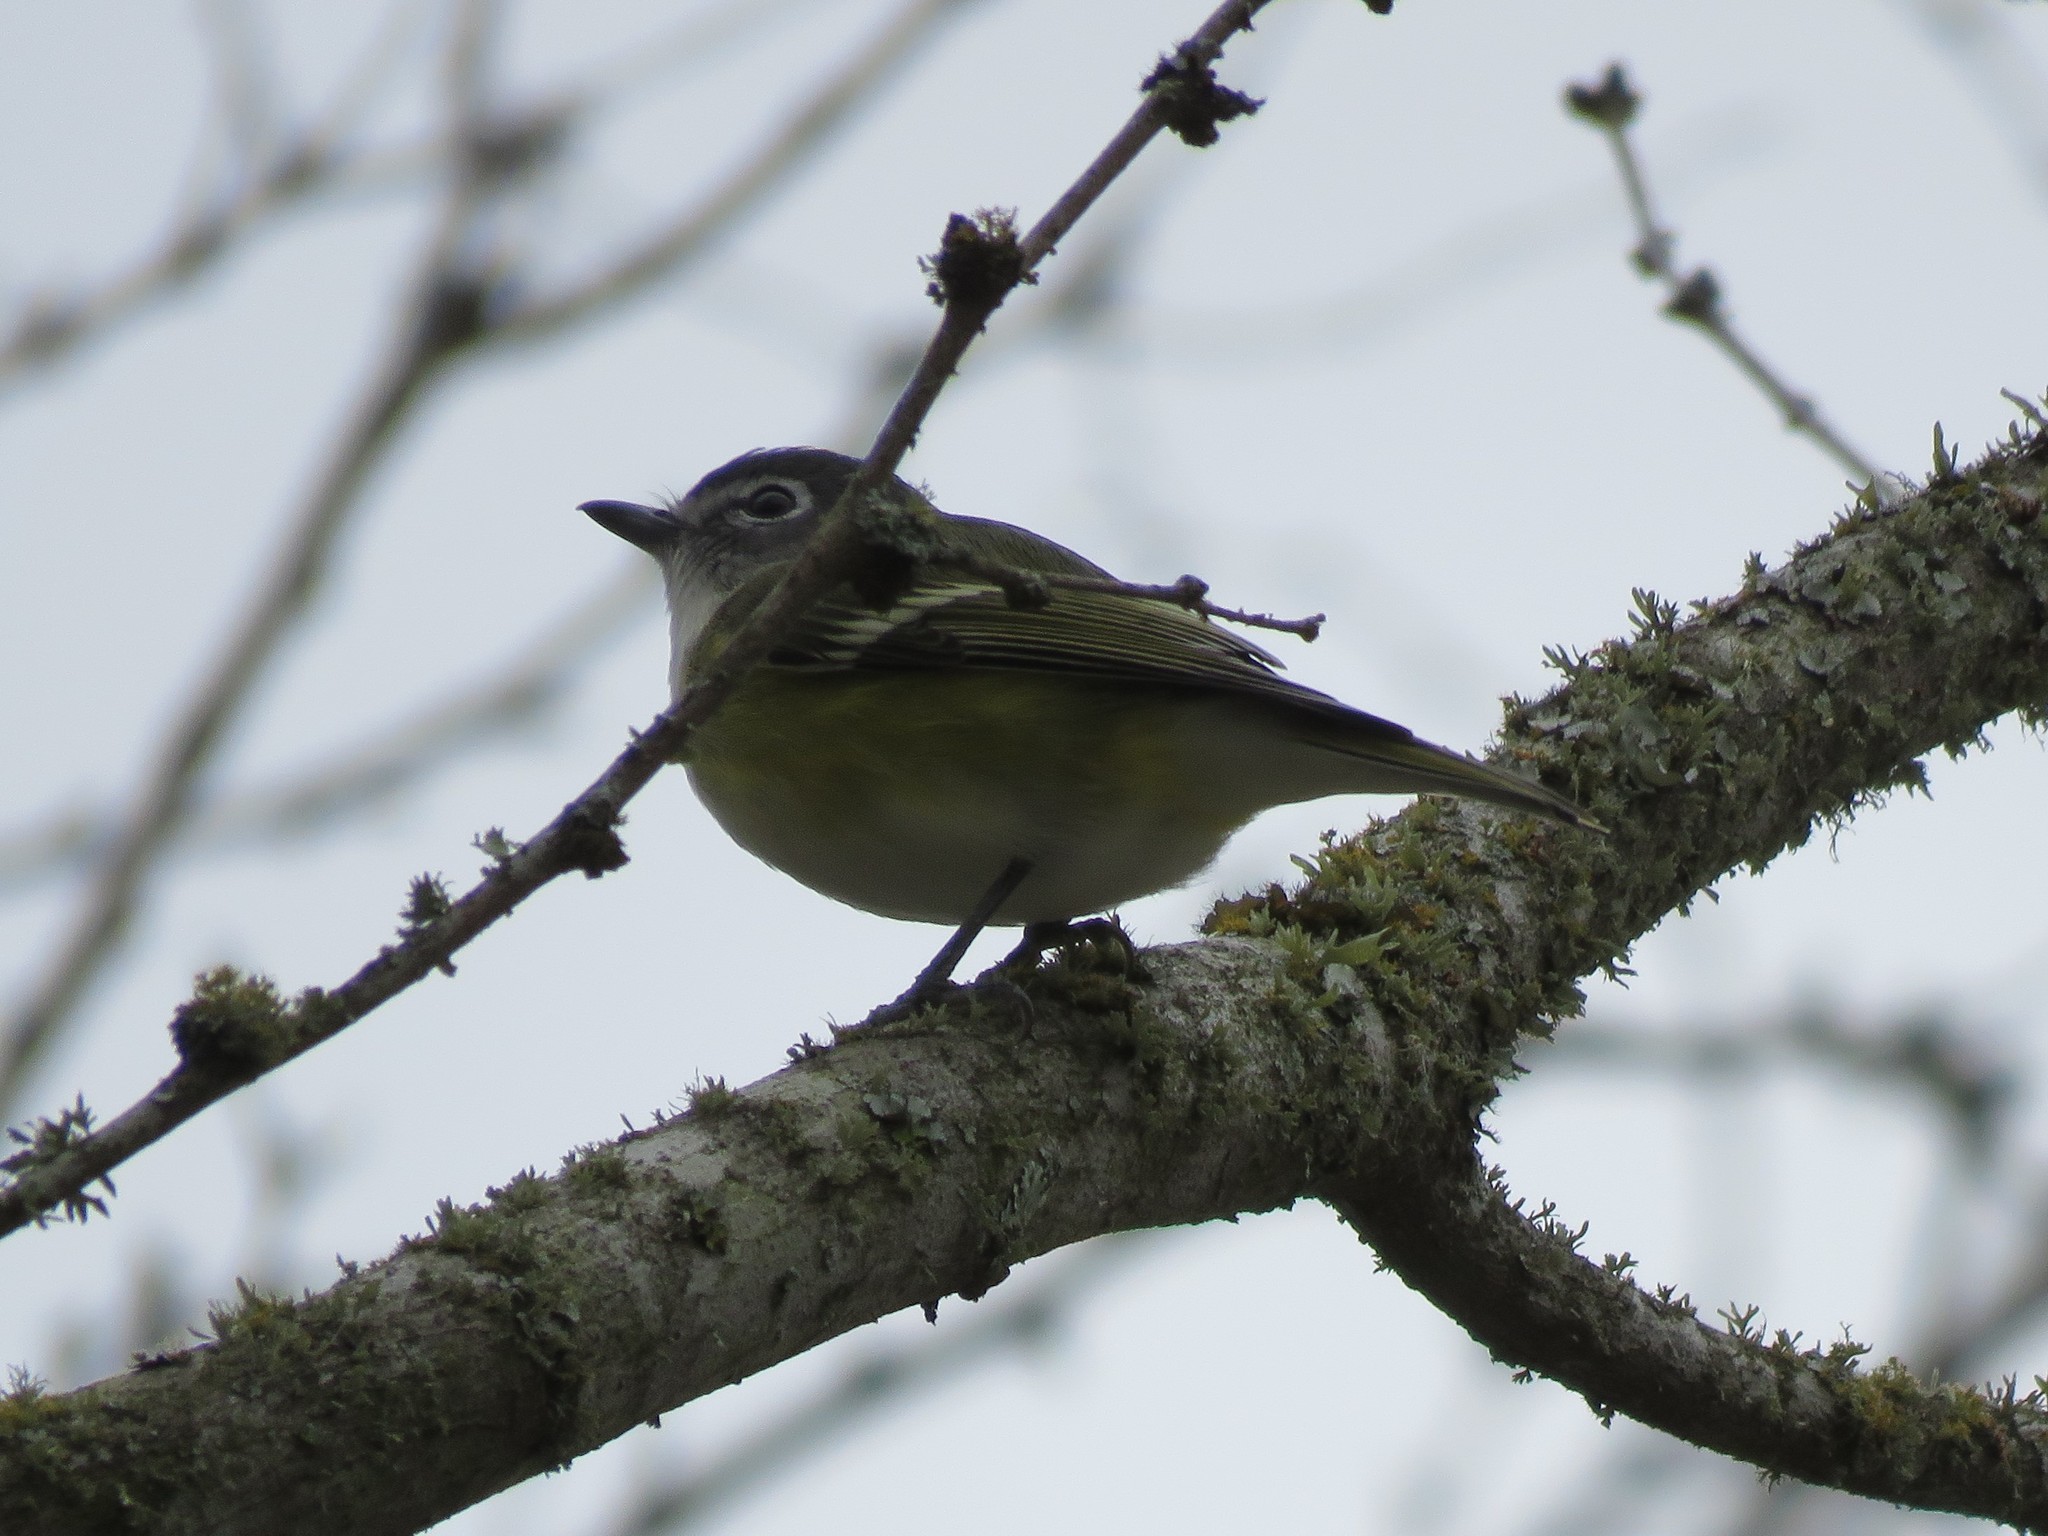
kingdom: Animalia
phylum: Chordata
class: Aves
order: Passeriformes
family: Vireonidae
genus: Vireo
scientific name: Vireo solitarius
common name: Blue-headed vireo
